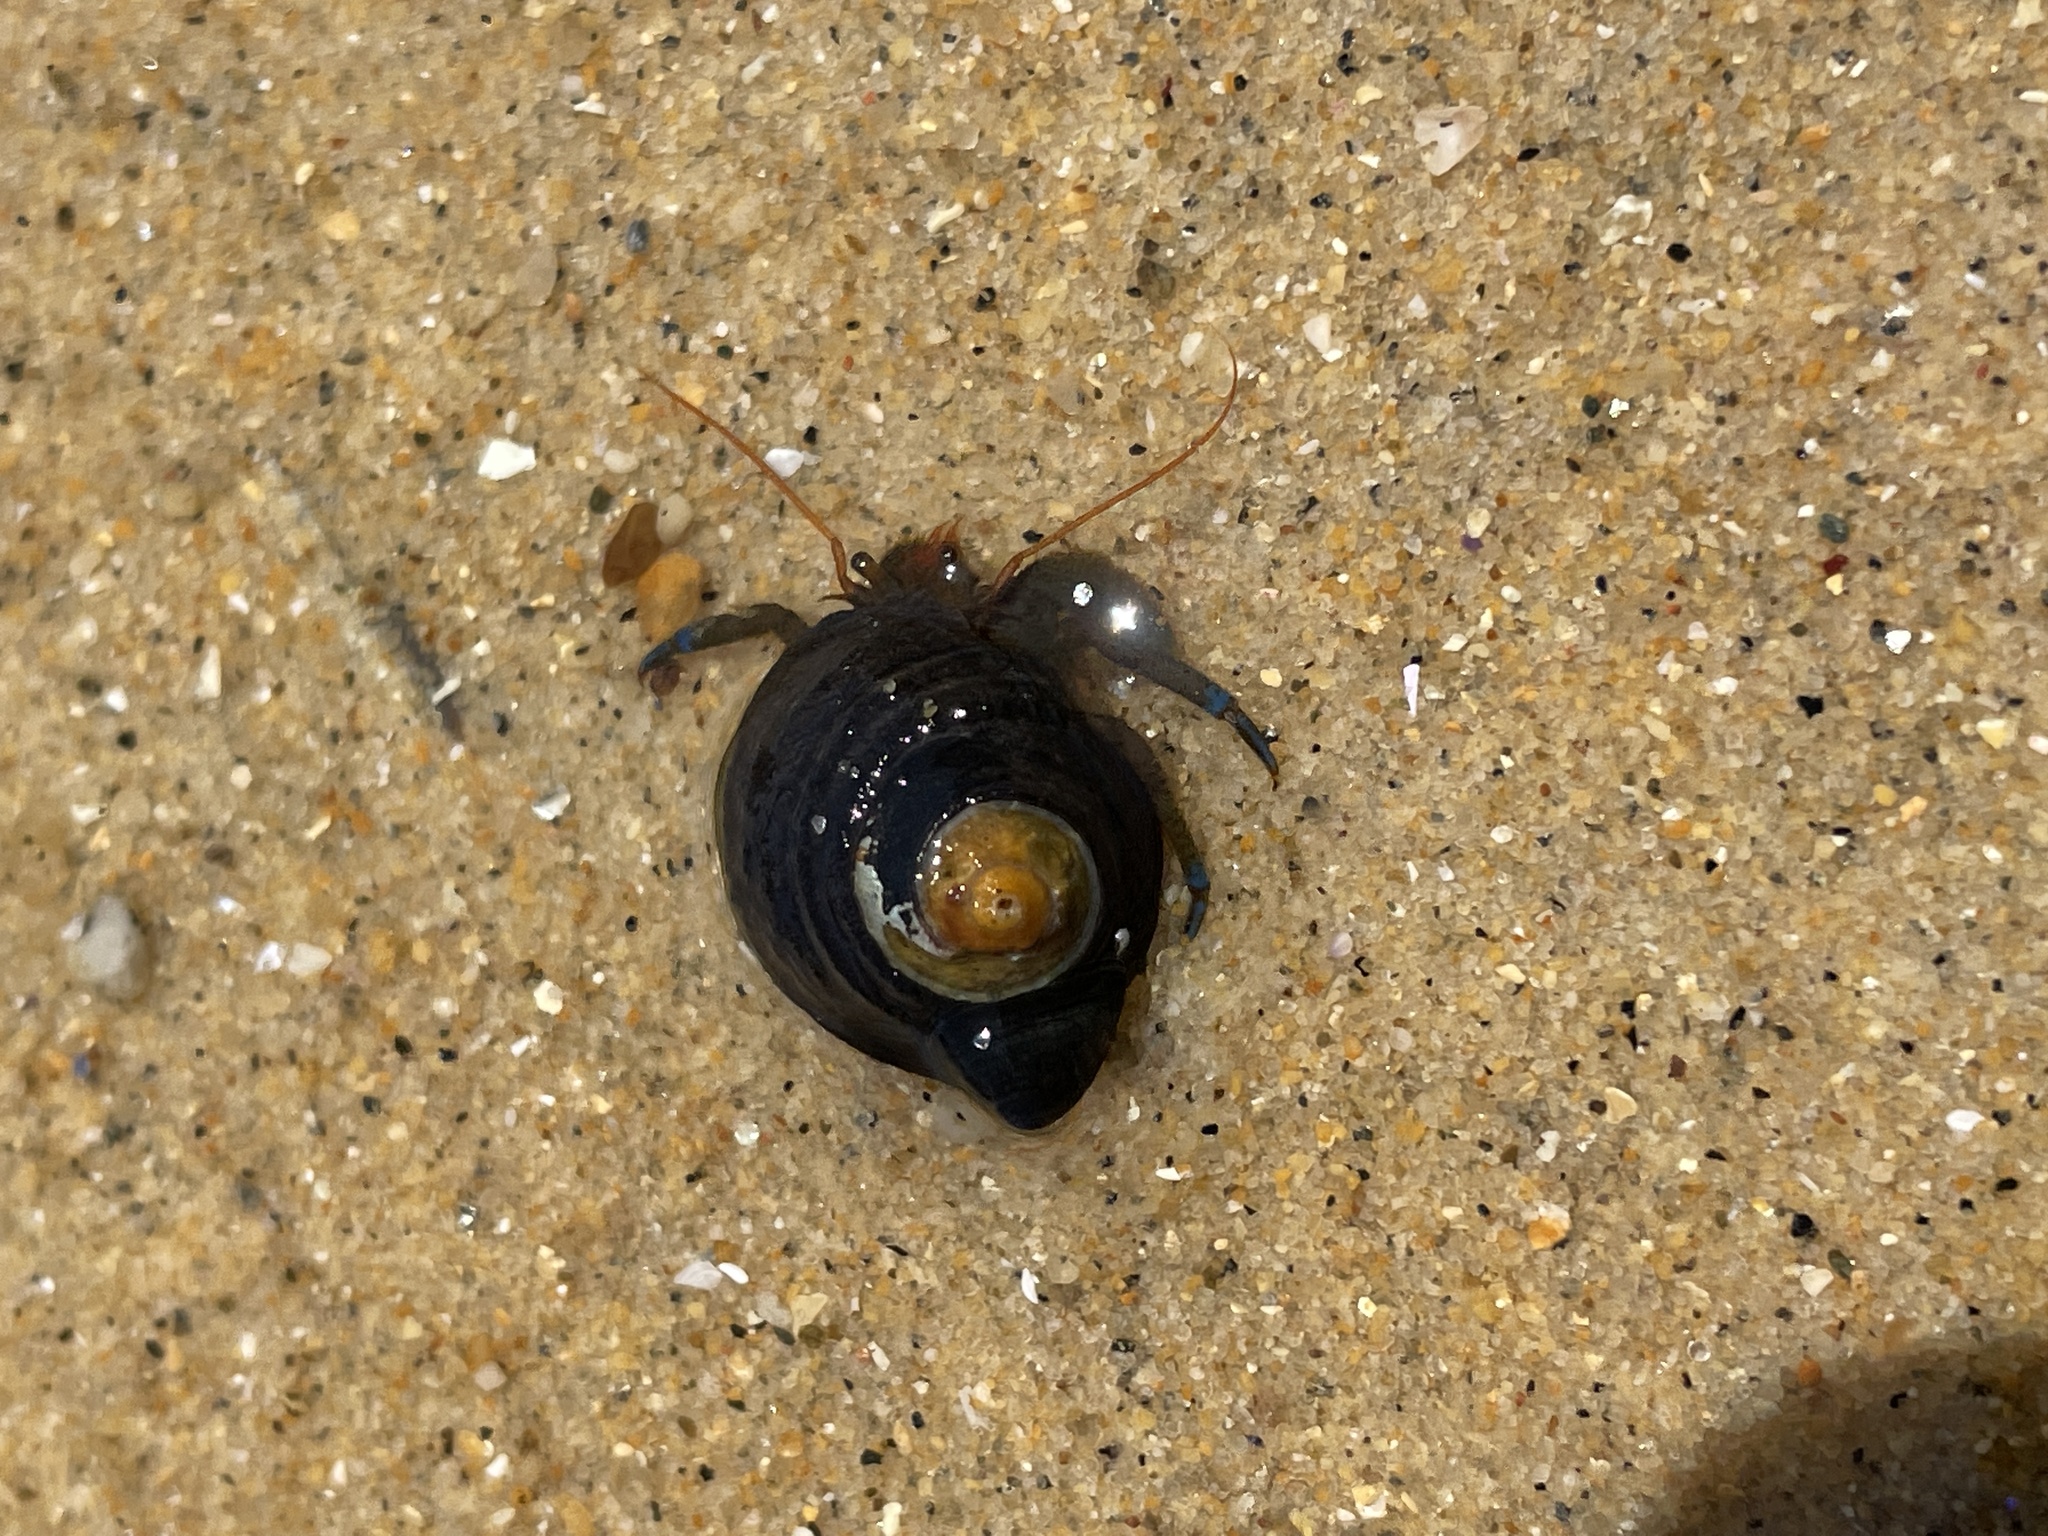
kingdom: Animalia
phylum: Arthropoda
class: Malacostraca
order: Decapoda
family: Paguridae
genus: Pagurus
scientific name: Pagurus samuelis
